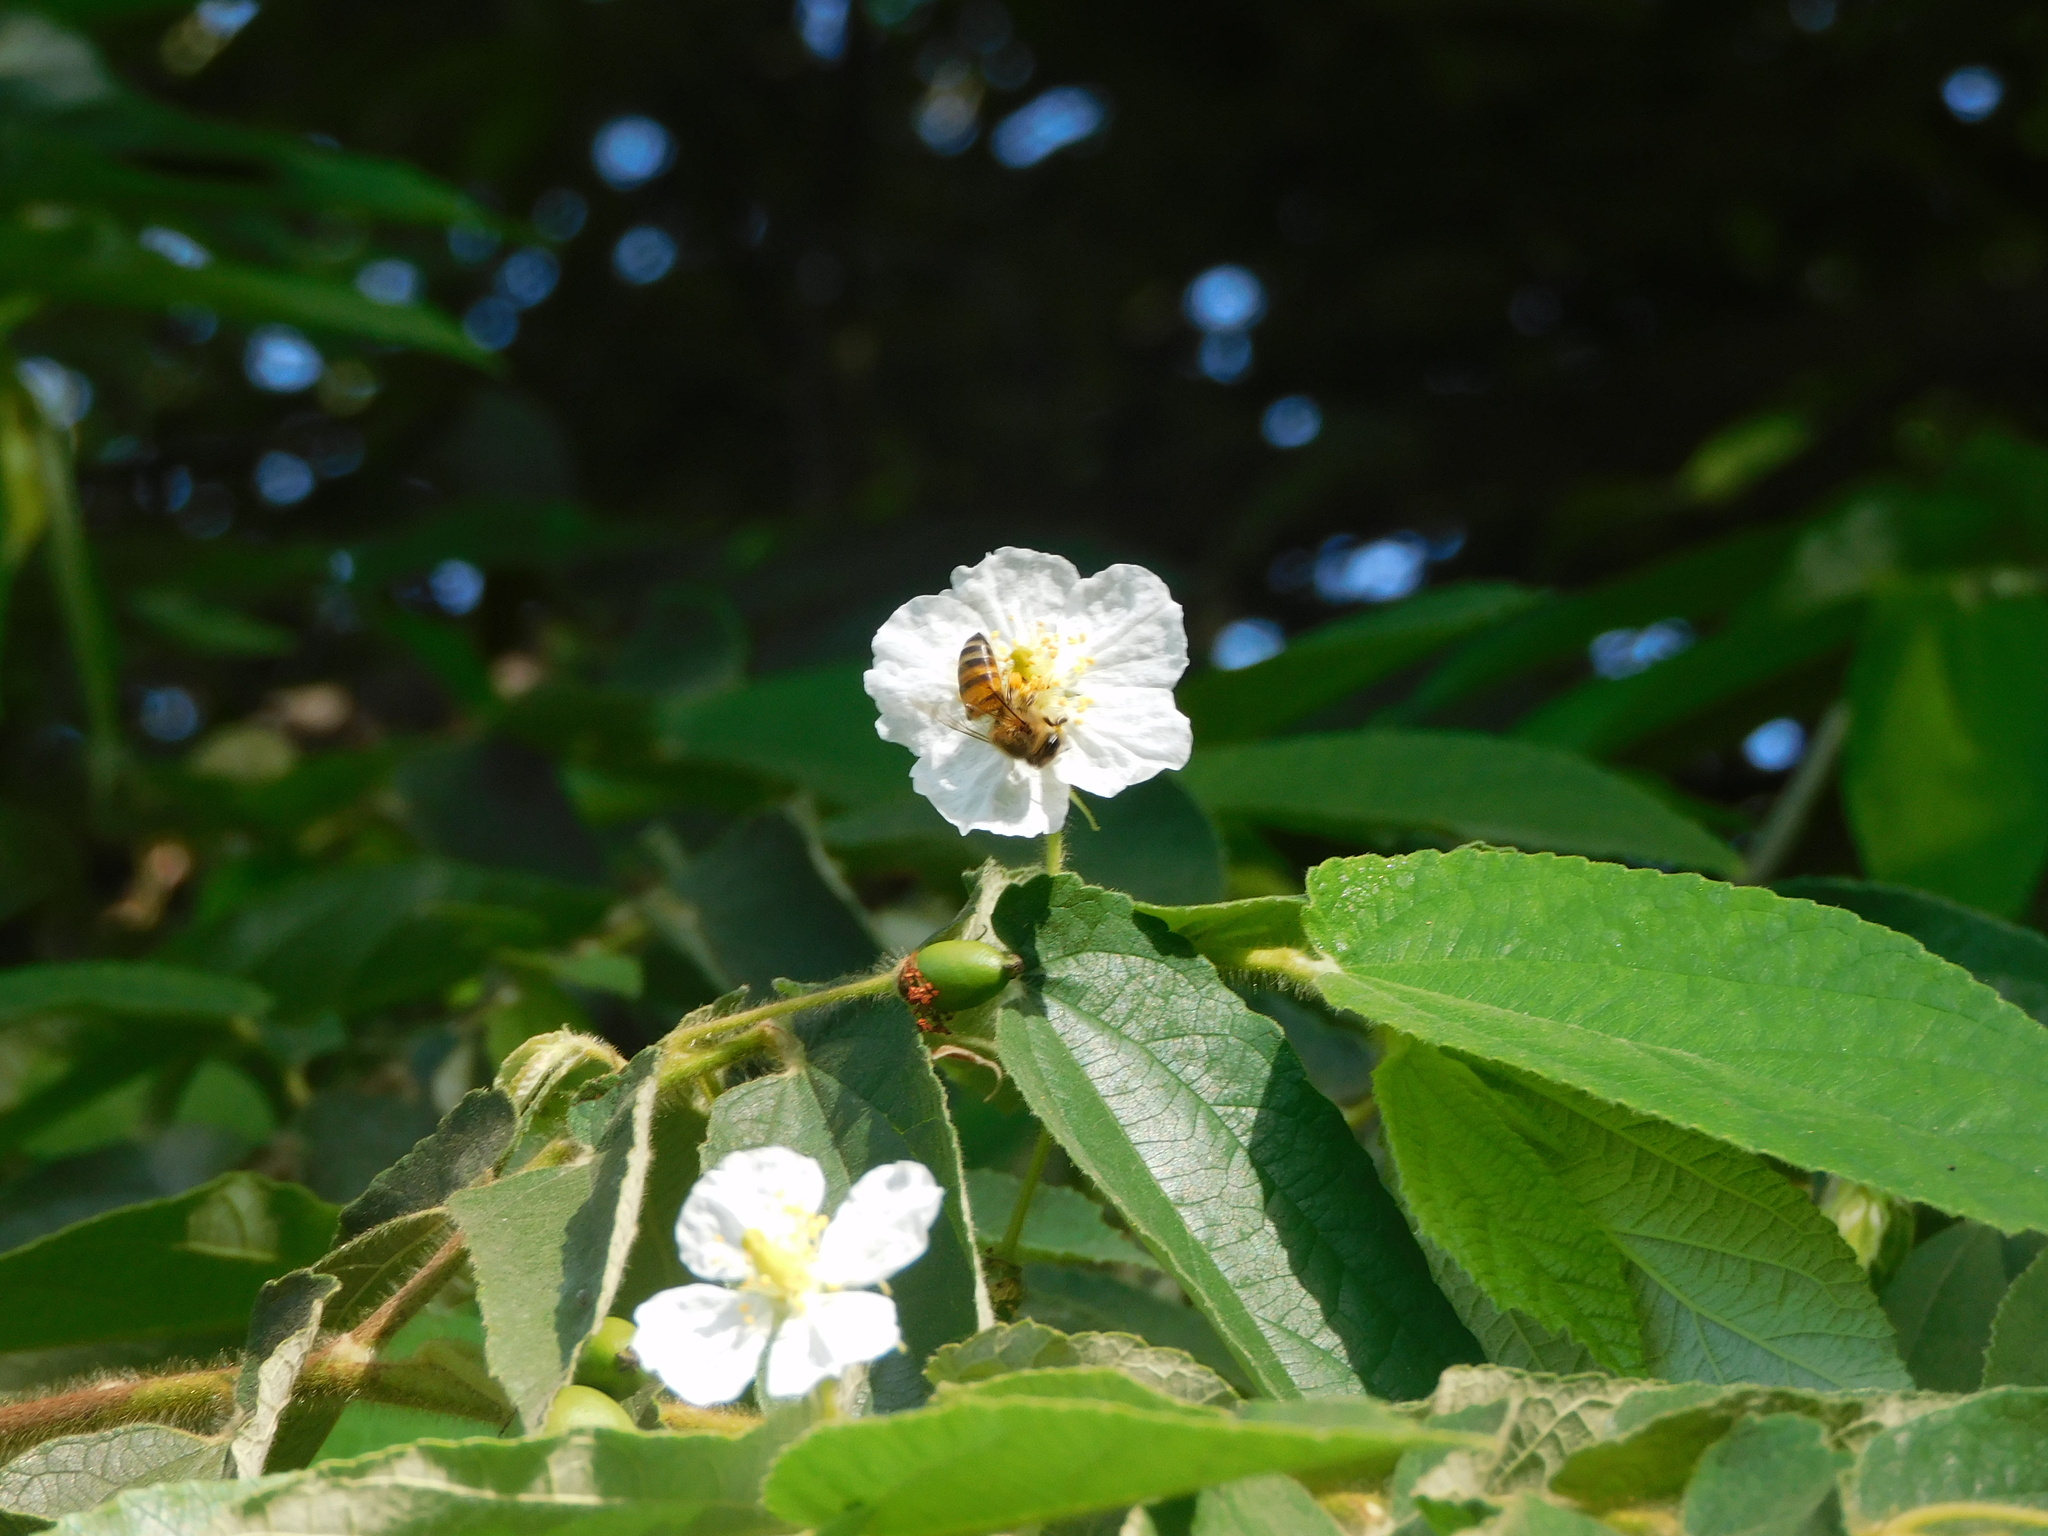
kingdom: Plantae
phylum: Tracheophyta
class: Magnoliopsida
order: Malvales
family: Muntingiaceae
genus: Muntingia
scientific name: Muntingia calabura
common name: Strawberrytree
